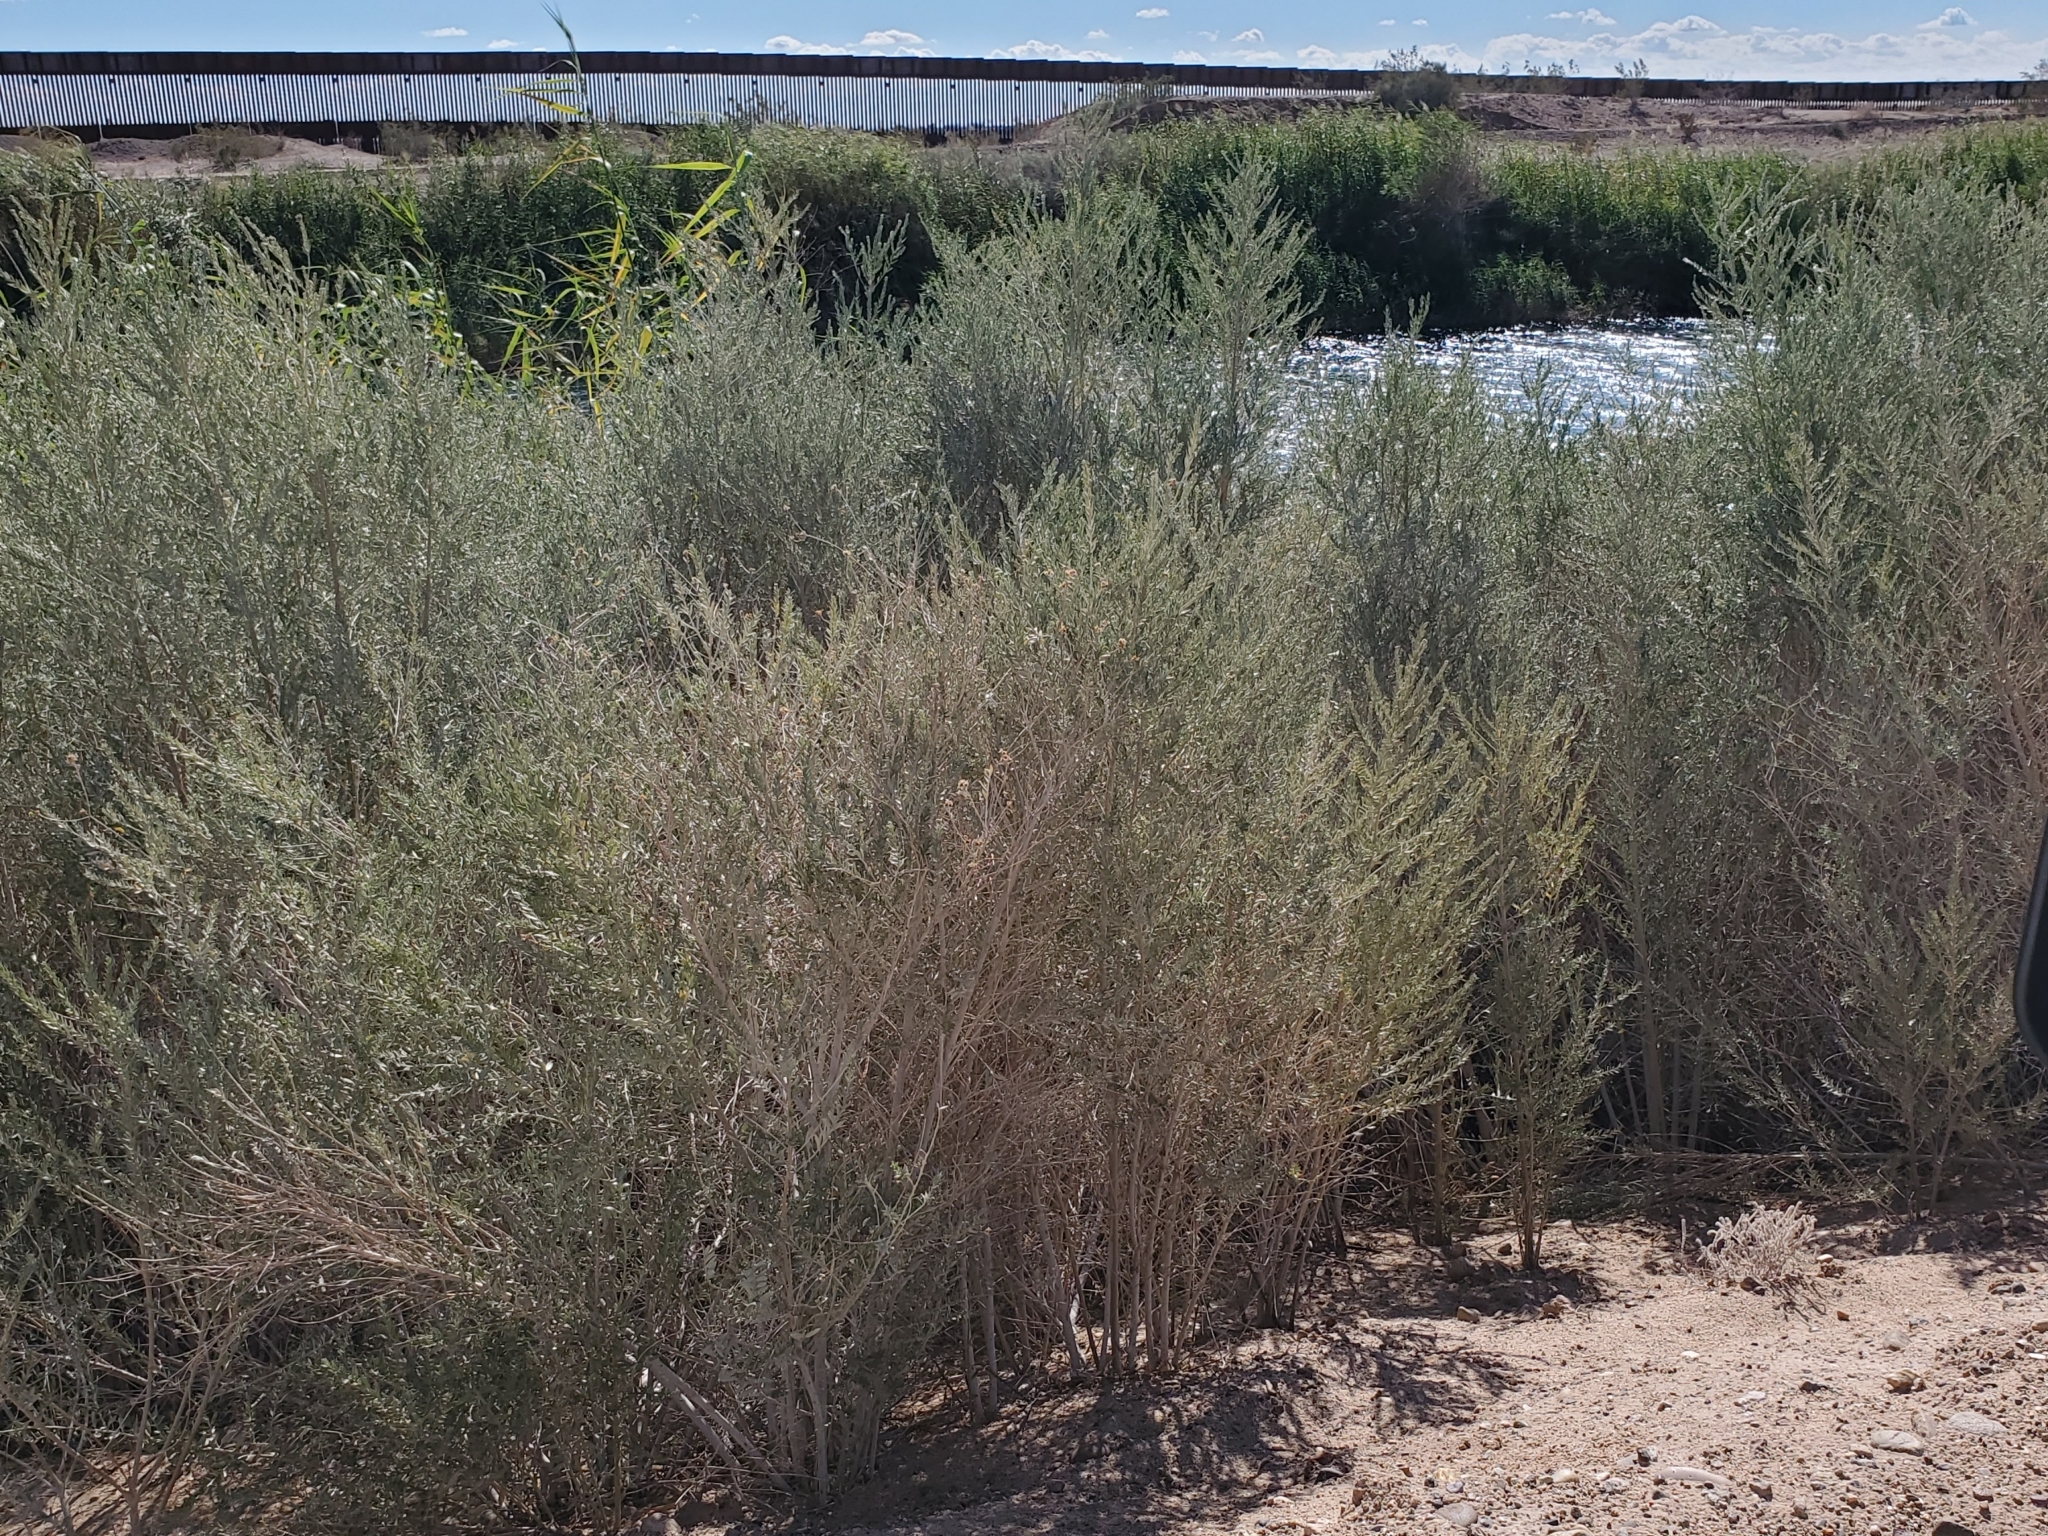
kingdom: Plantae
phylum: Tracheophyta
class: Magnoliopsida
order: Asterales
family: Asteraceae
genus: Pluchea
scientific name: Pluchea sericea
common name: Arrow-weed
